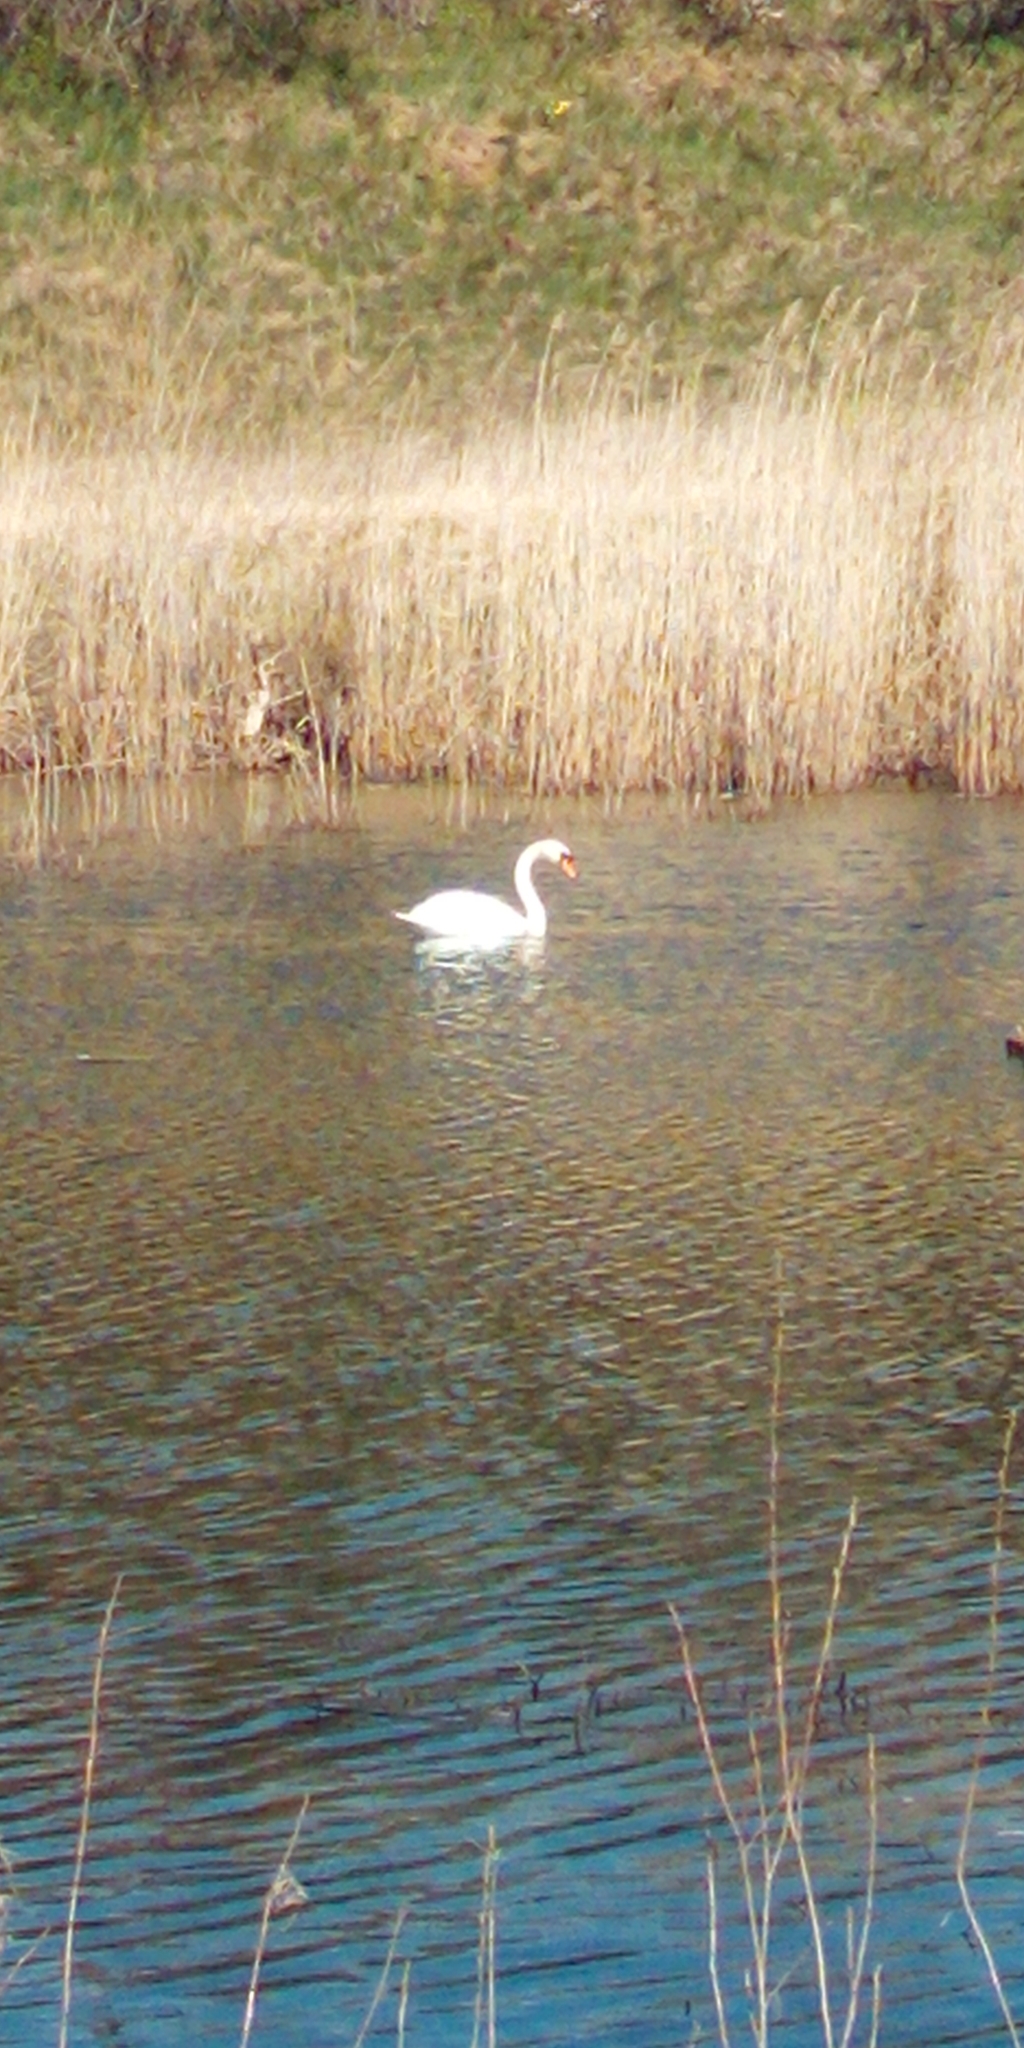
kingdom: Animalia
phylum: Chordata
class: Aves
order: Anseriformes
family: Anatidae
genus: Cygnus
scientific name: Cygnus olor
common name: Mute swan
